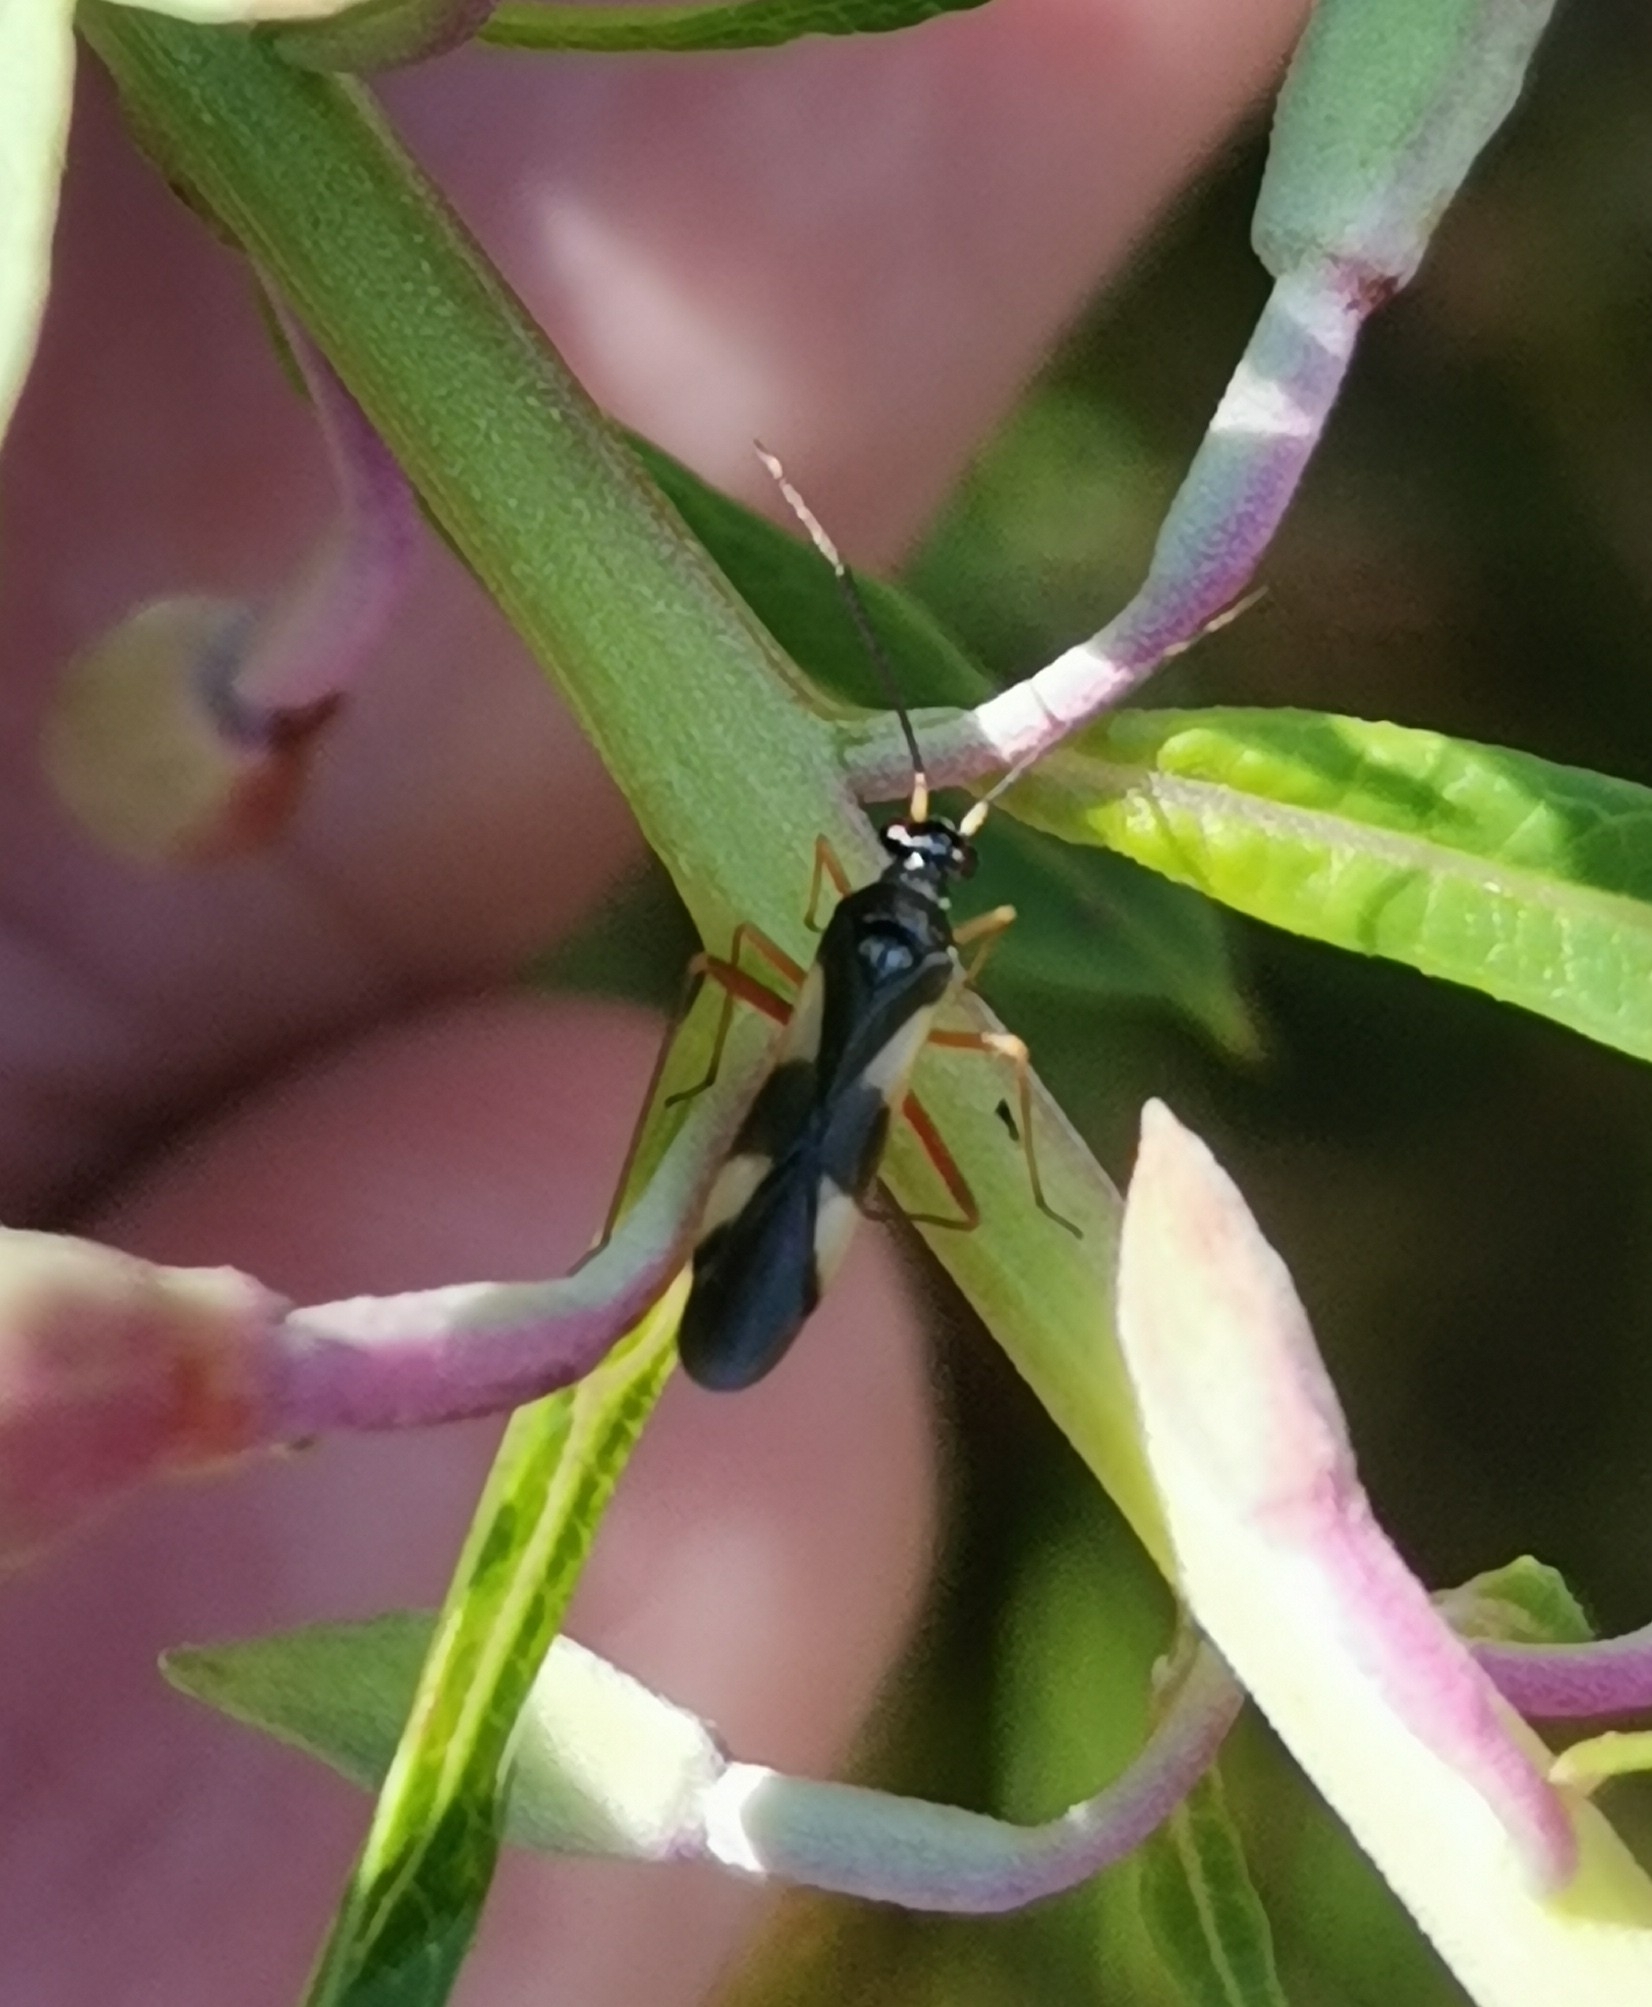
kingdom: Animalia
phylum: Arthropoda
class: Insecta
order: Hemiptera
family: Miridae
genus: Globiceps
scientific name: Globiceps flavomaculatus
